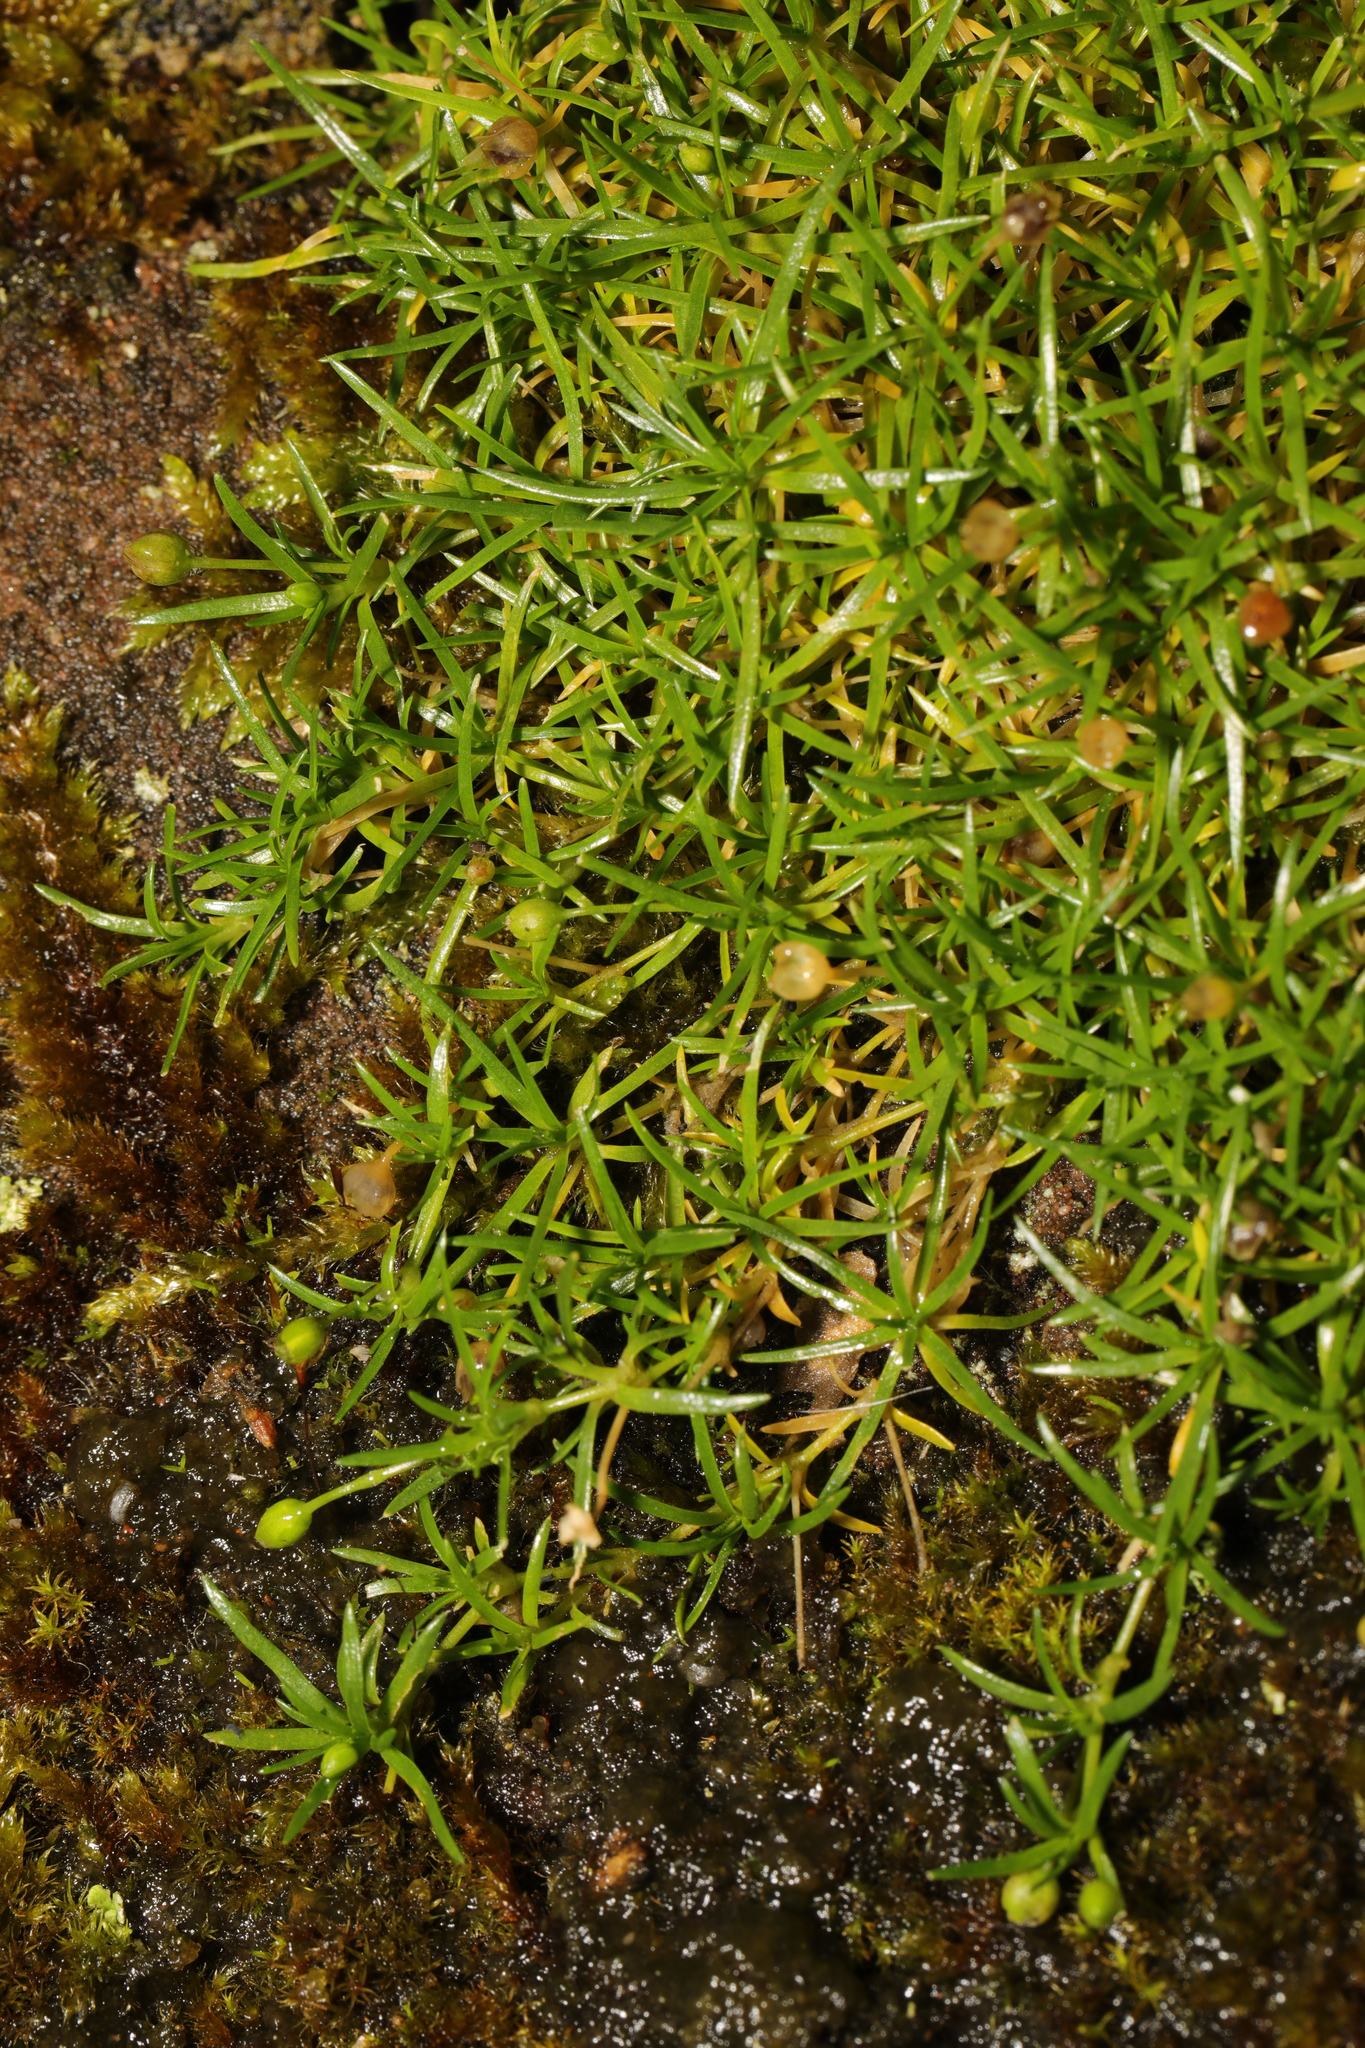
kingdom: Plantae
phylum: Tracheophyta
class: Magnoliopsida
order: Caryophyllales
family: Caryophyllaceae
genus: Sagina
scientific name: Sagina procumbens
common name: Procumbent pearlwort
